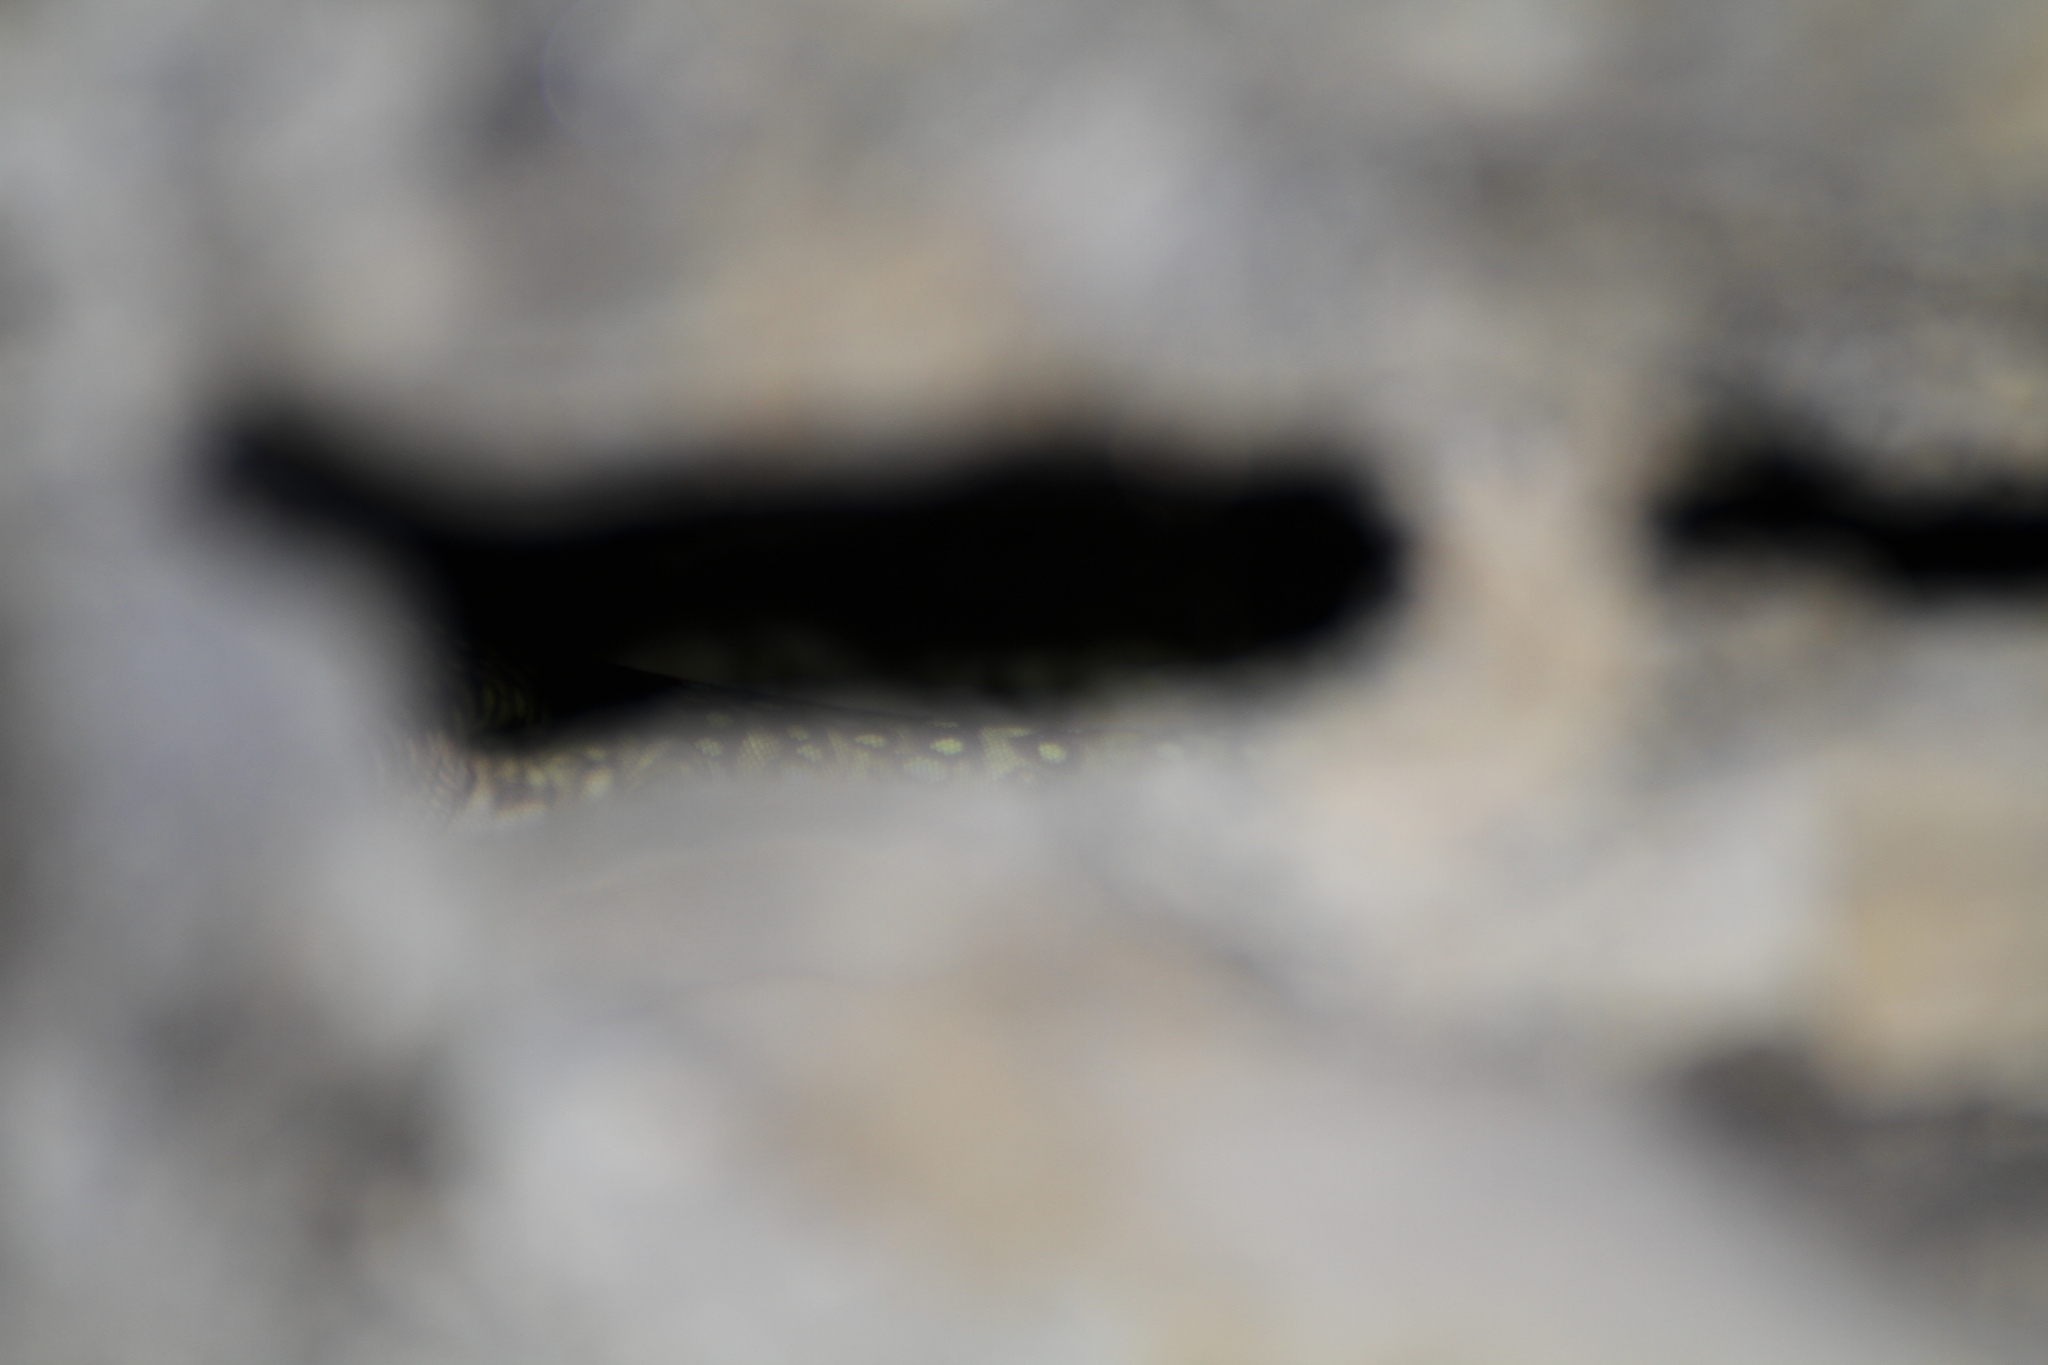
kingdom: Animalia
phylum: Chordata
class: Squamata
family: Lacertidae
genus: Timon
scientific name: Timon lepidus
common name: Ocellated lizard
